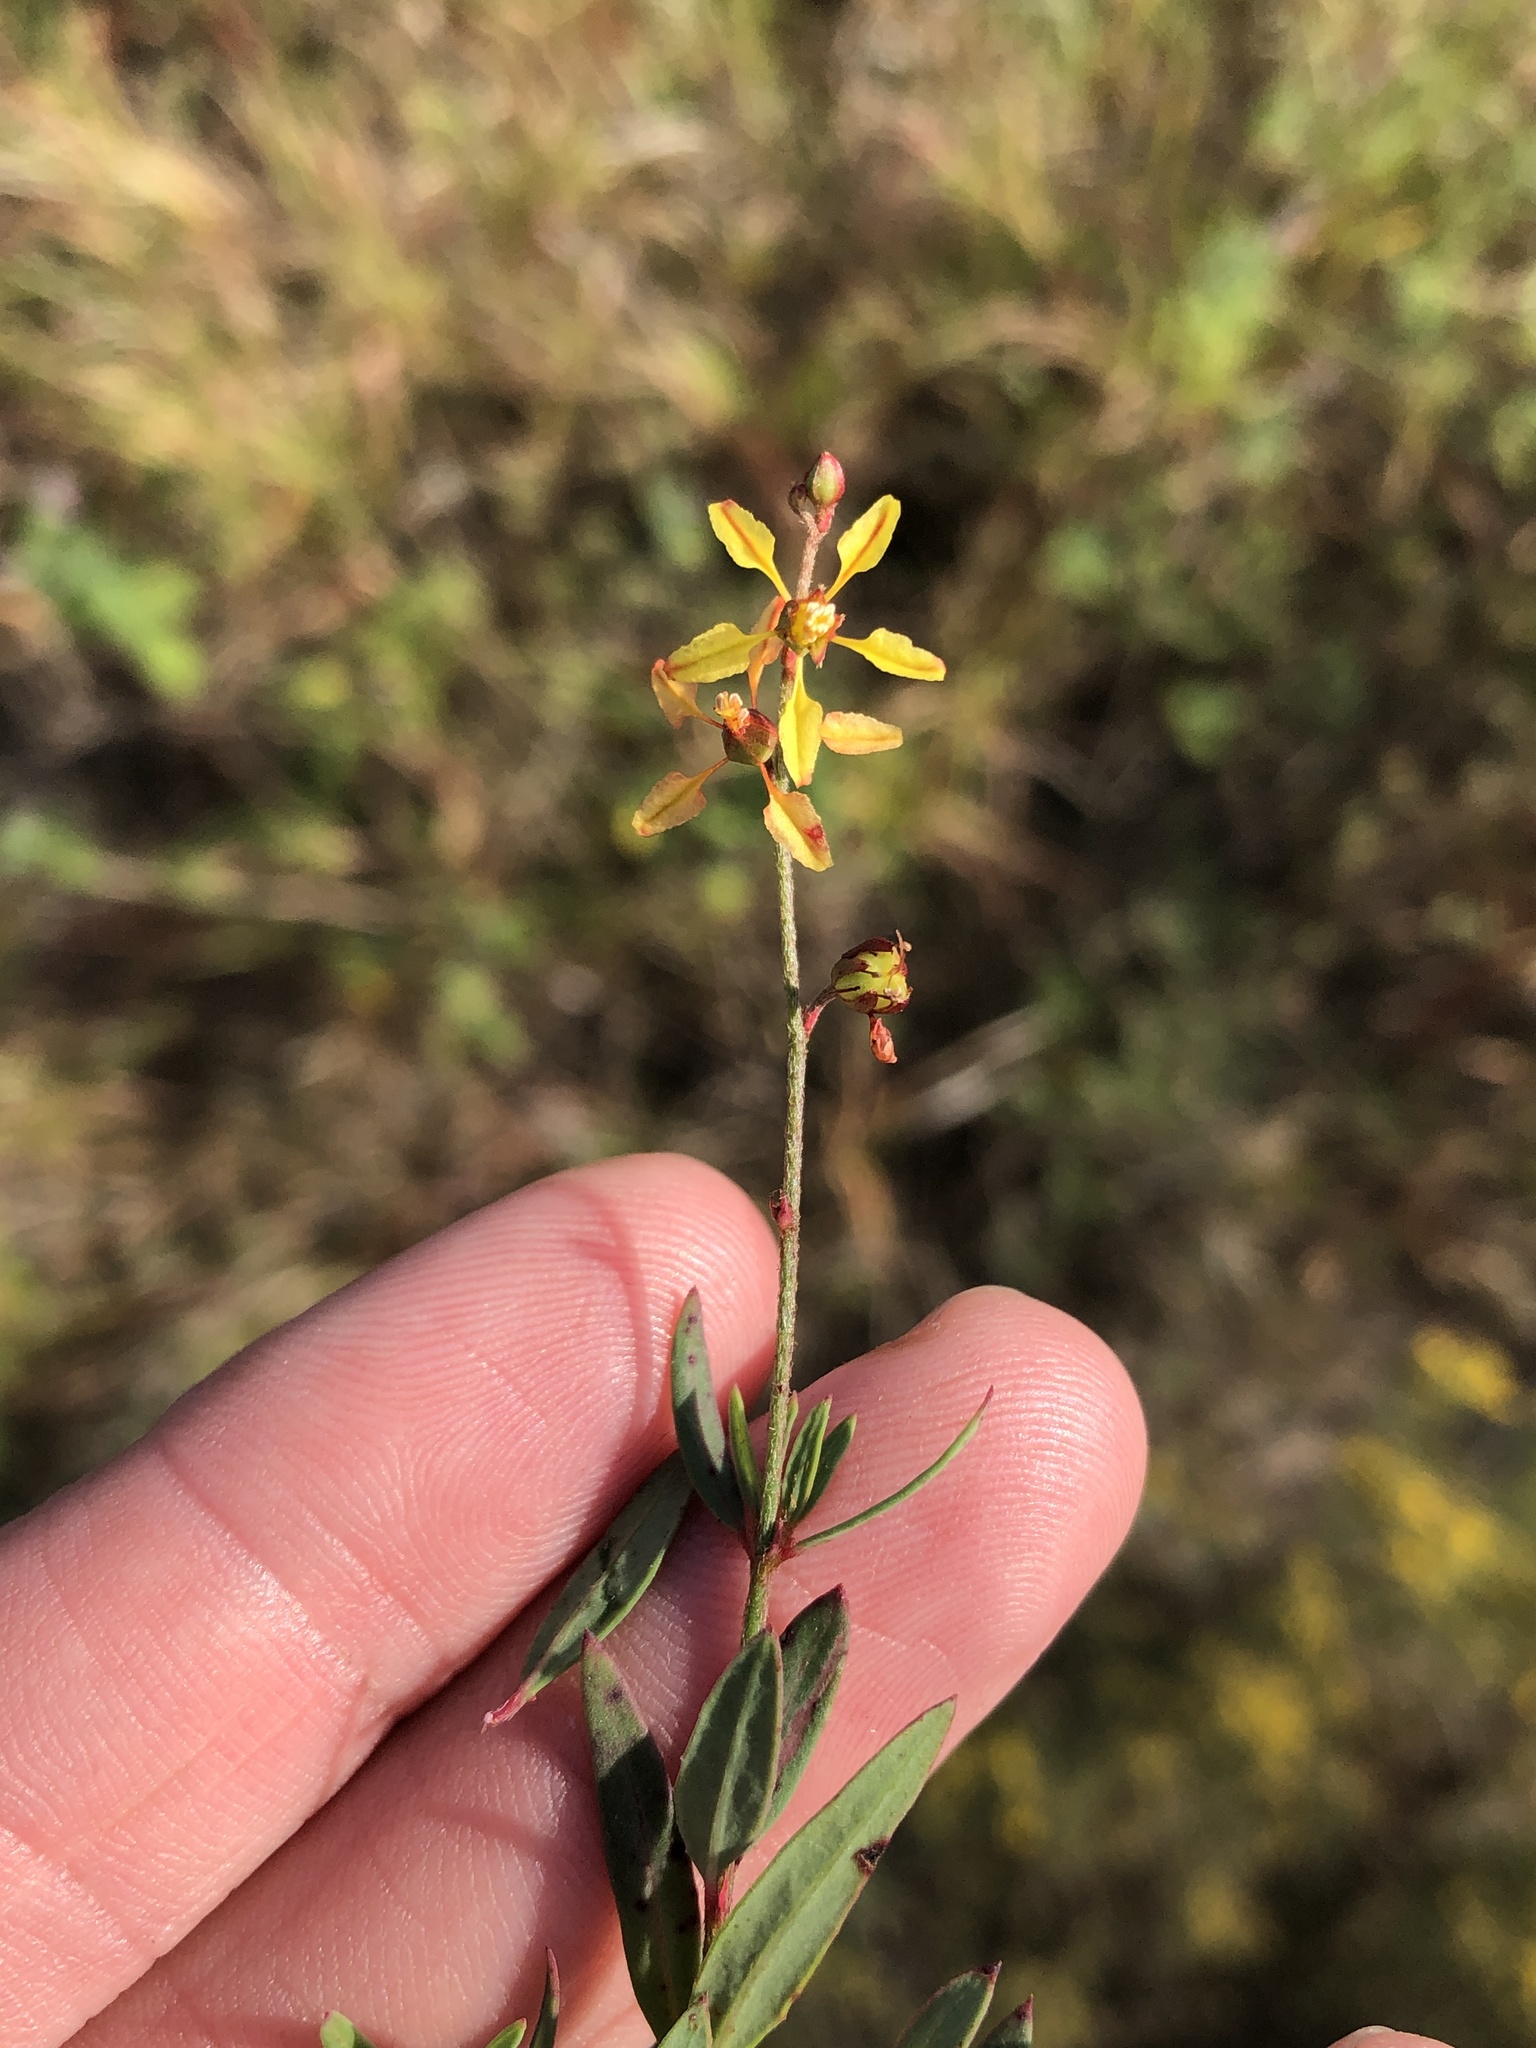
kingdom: Plantae
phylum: Tracheophyta
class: Magnoliopsida
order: Malpighiales
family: Malpighiaceae
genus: Galphimia
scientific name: Galphimia angustifolia
